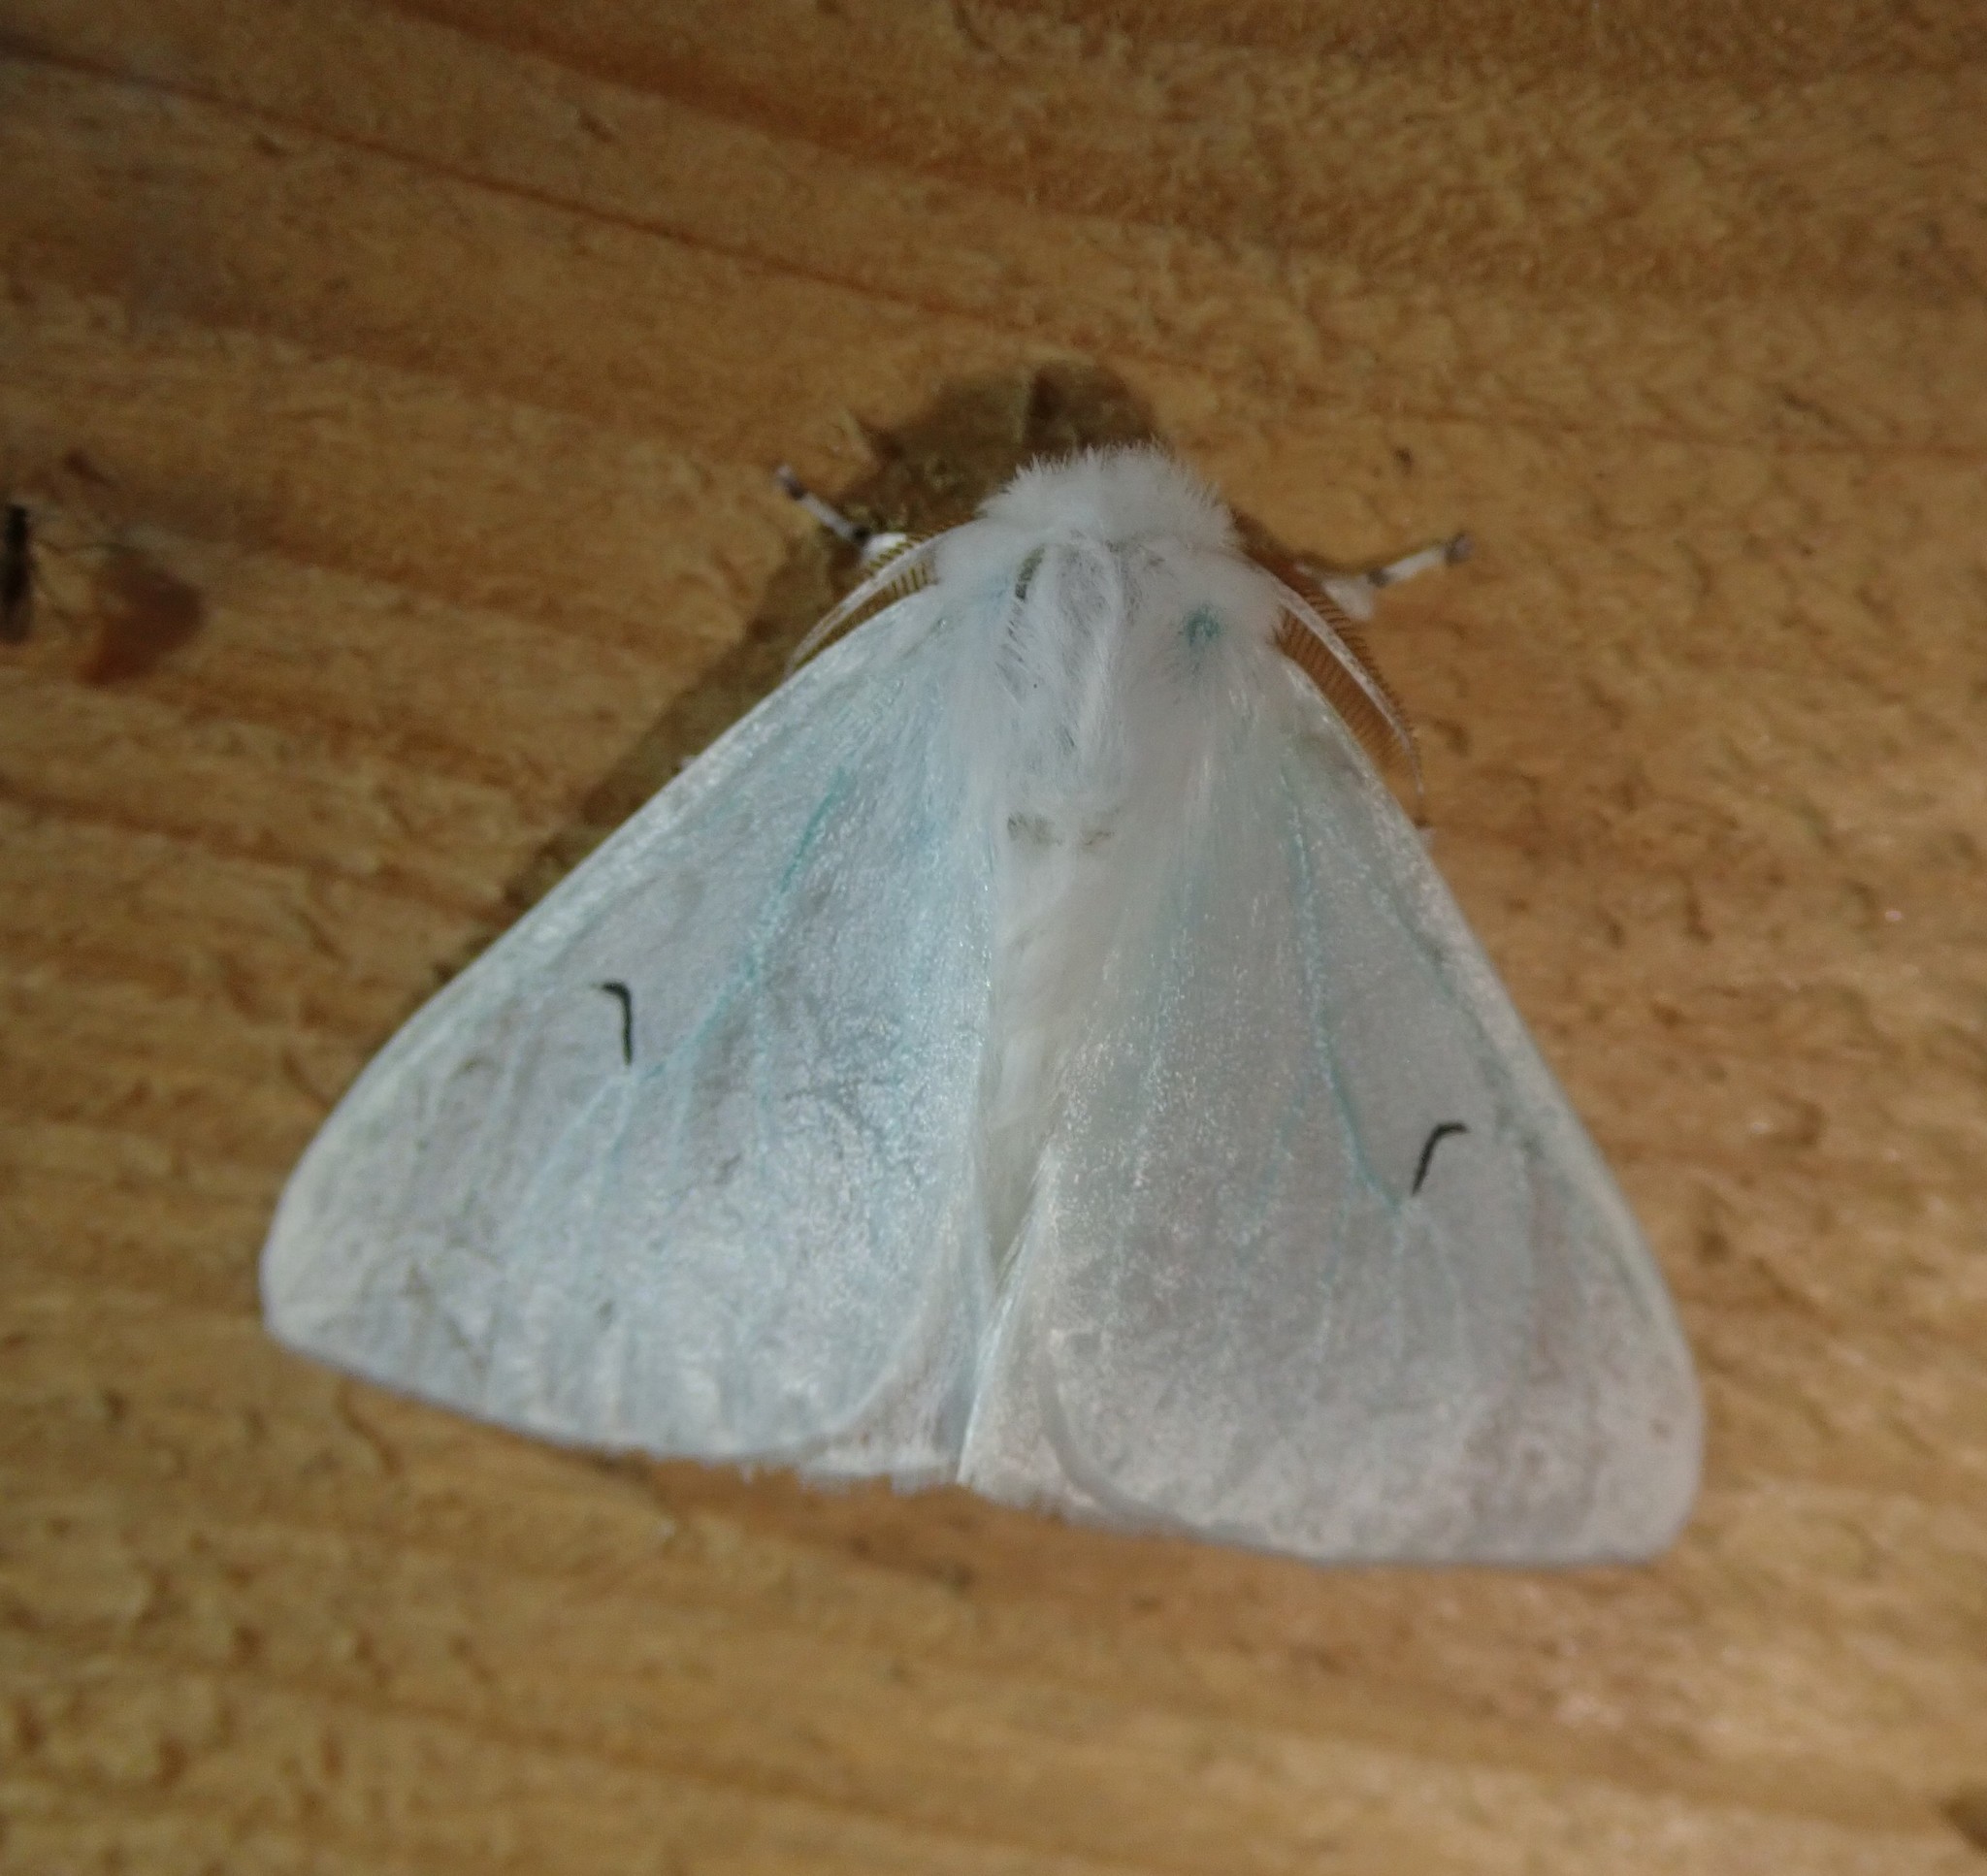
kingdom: Animalia
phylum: Arthropoda
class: Insecta
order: Lepidoptera
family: Erebidae
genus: Arctornis
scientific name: Arctornis l-nigrum
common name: Black v moth
